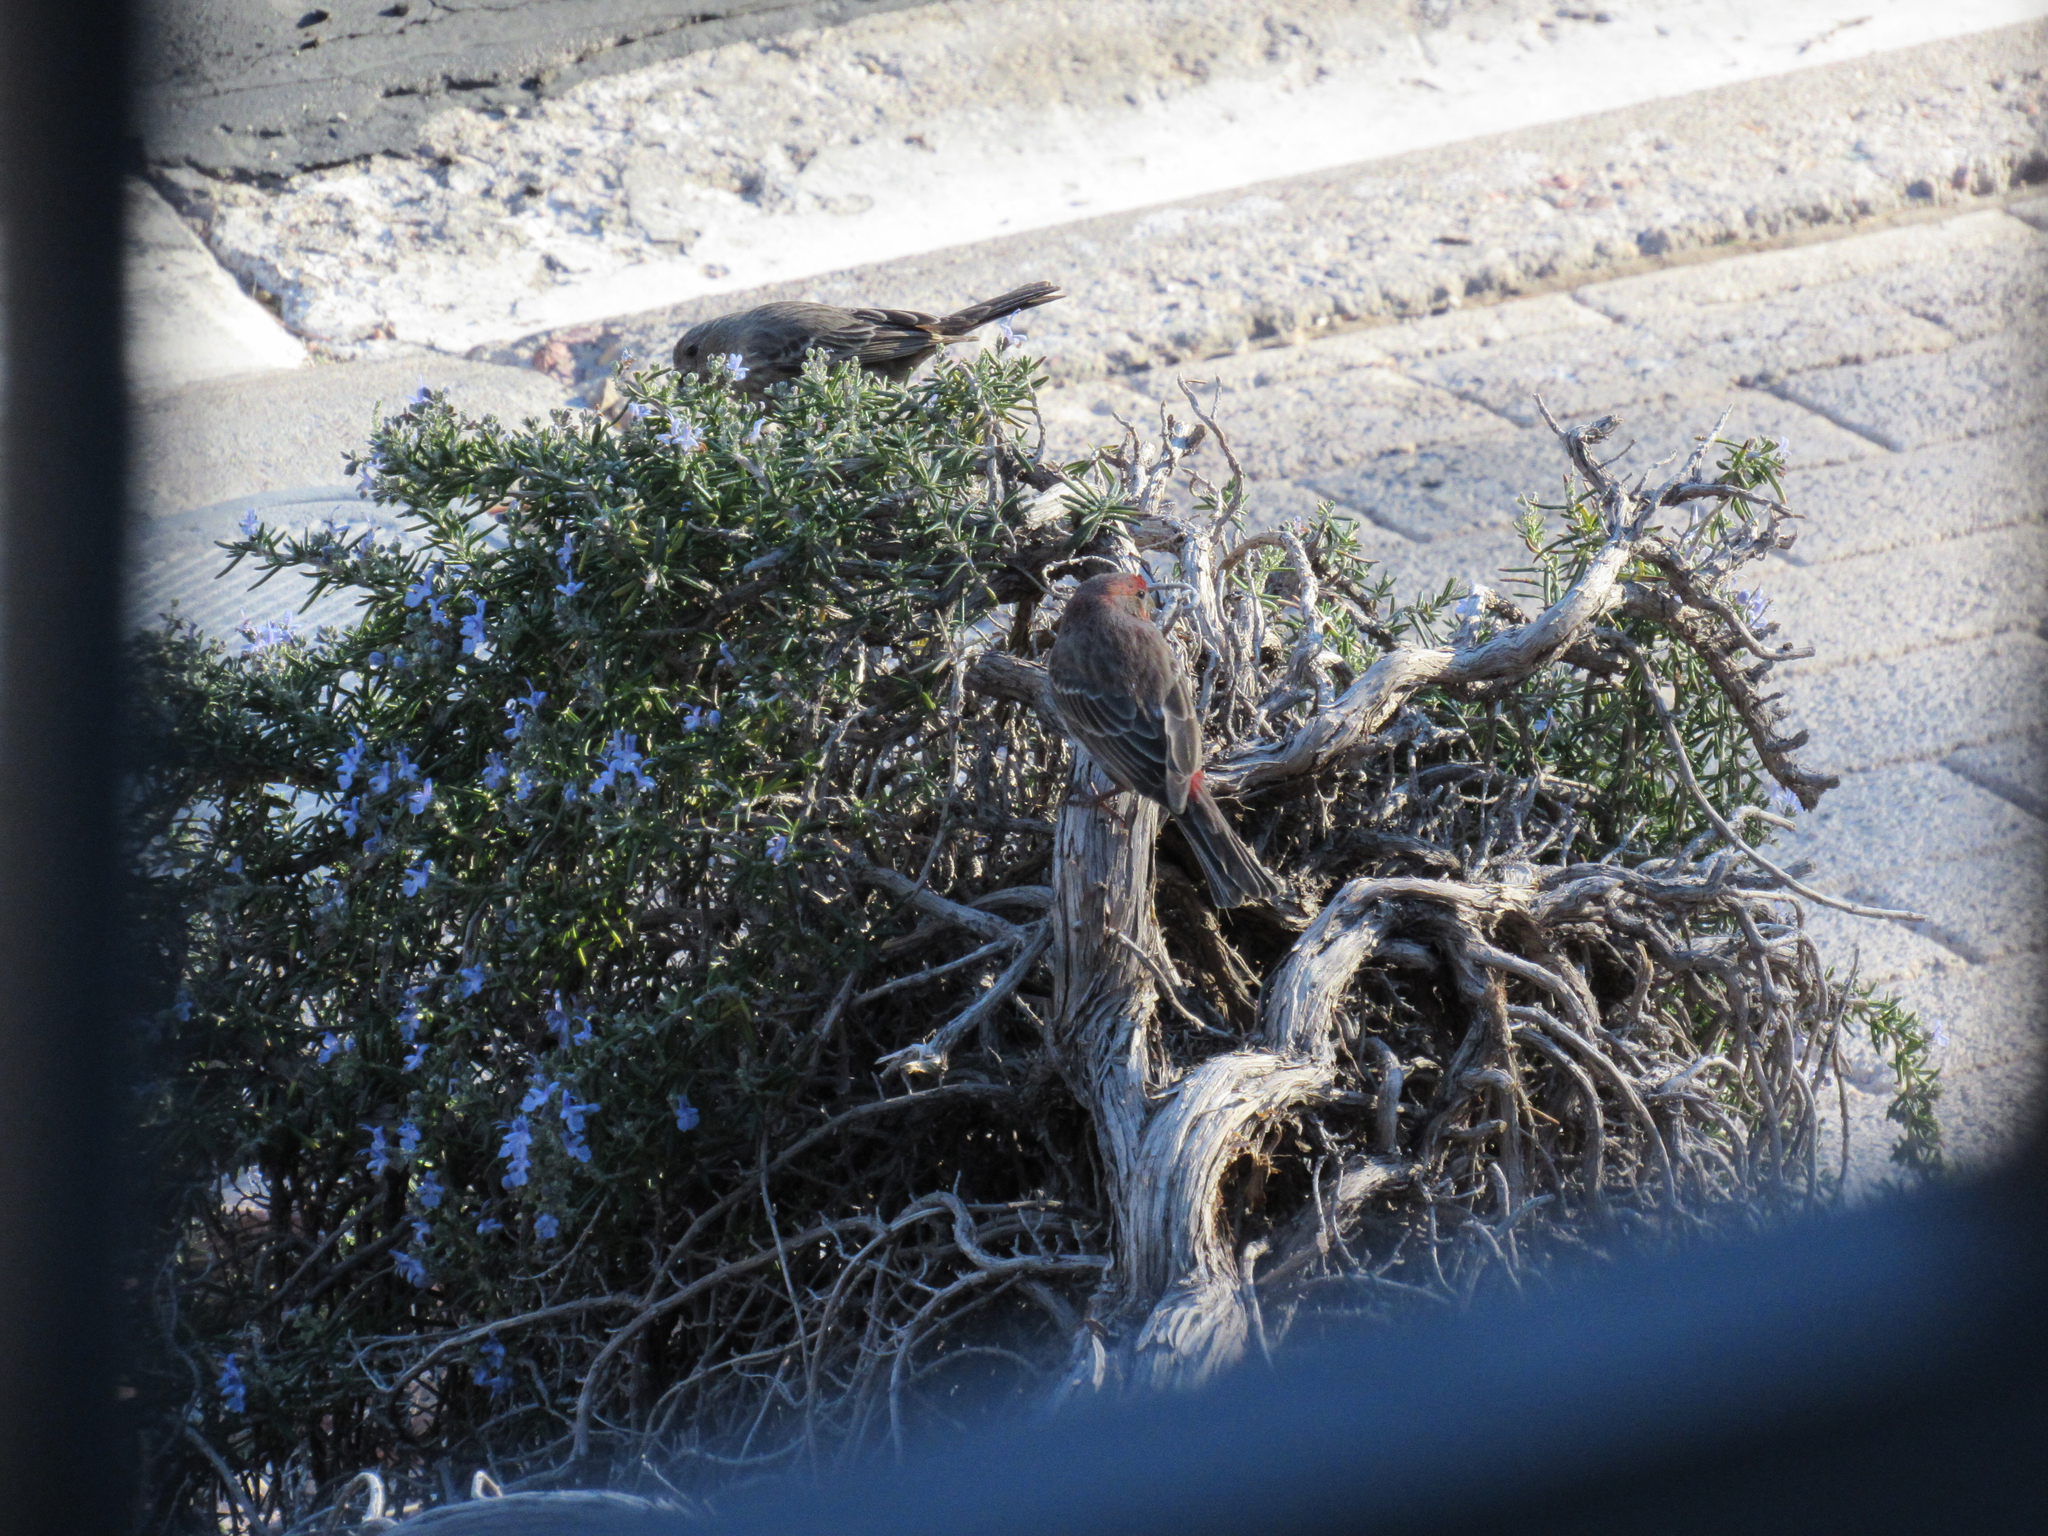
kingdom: Animalia
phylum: Chordata
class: Aves
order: Passeriformes
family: Fringillidae
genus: Haemorhous
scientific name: Haemorhous mexicanus
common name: House finch
